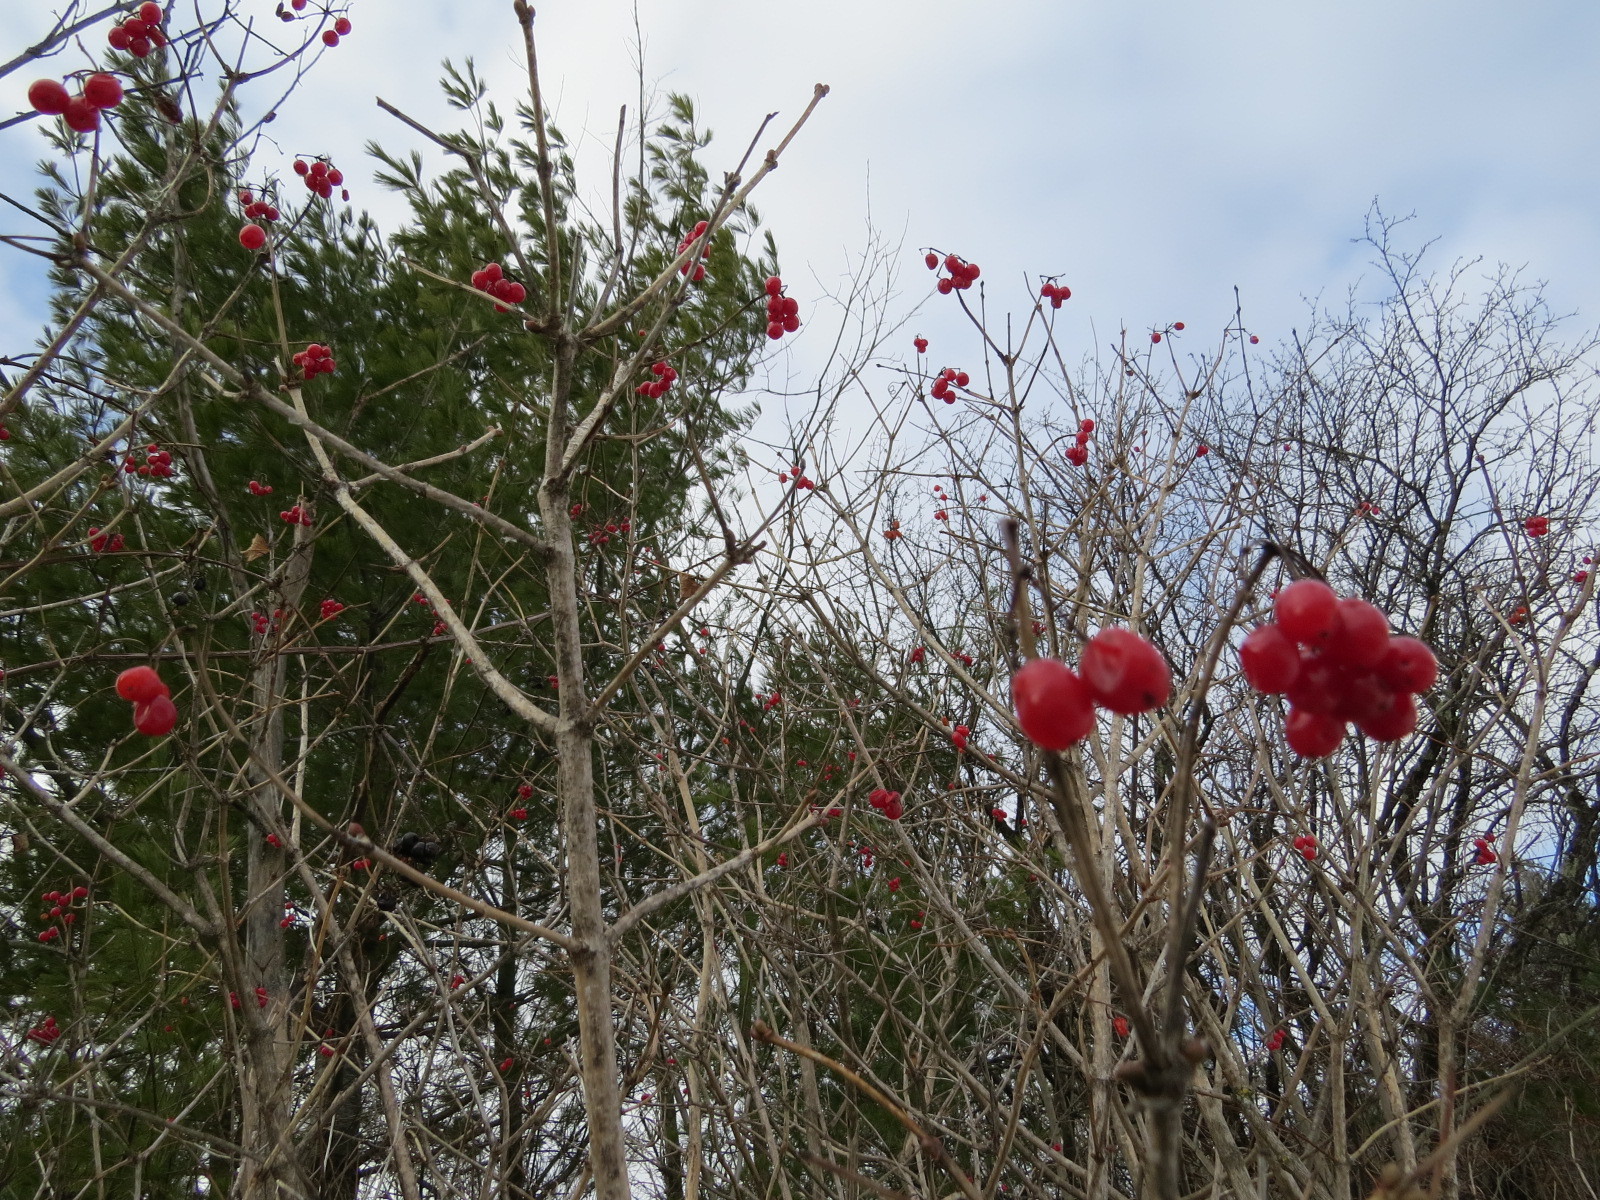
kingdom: Plantae
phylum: Tracheophyta
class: Magnoliopsida
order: Dipsacales
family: Viburnaceae
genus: Viburnum
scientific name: Viburnum opulus
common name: Guelder-rose
